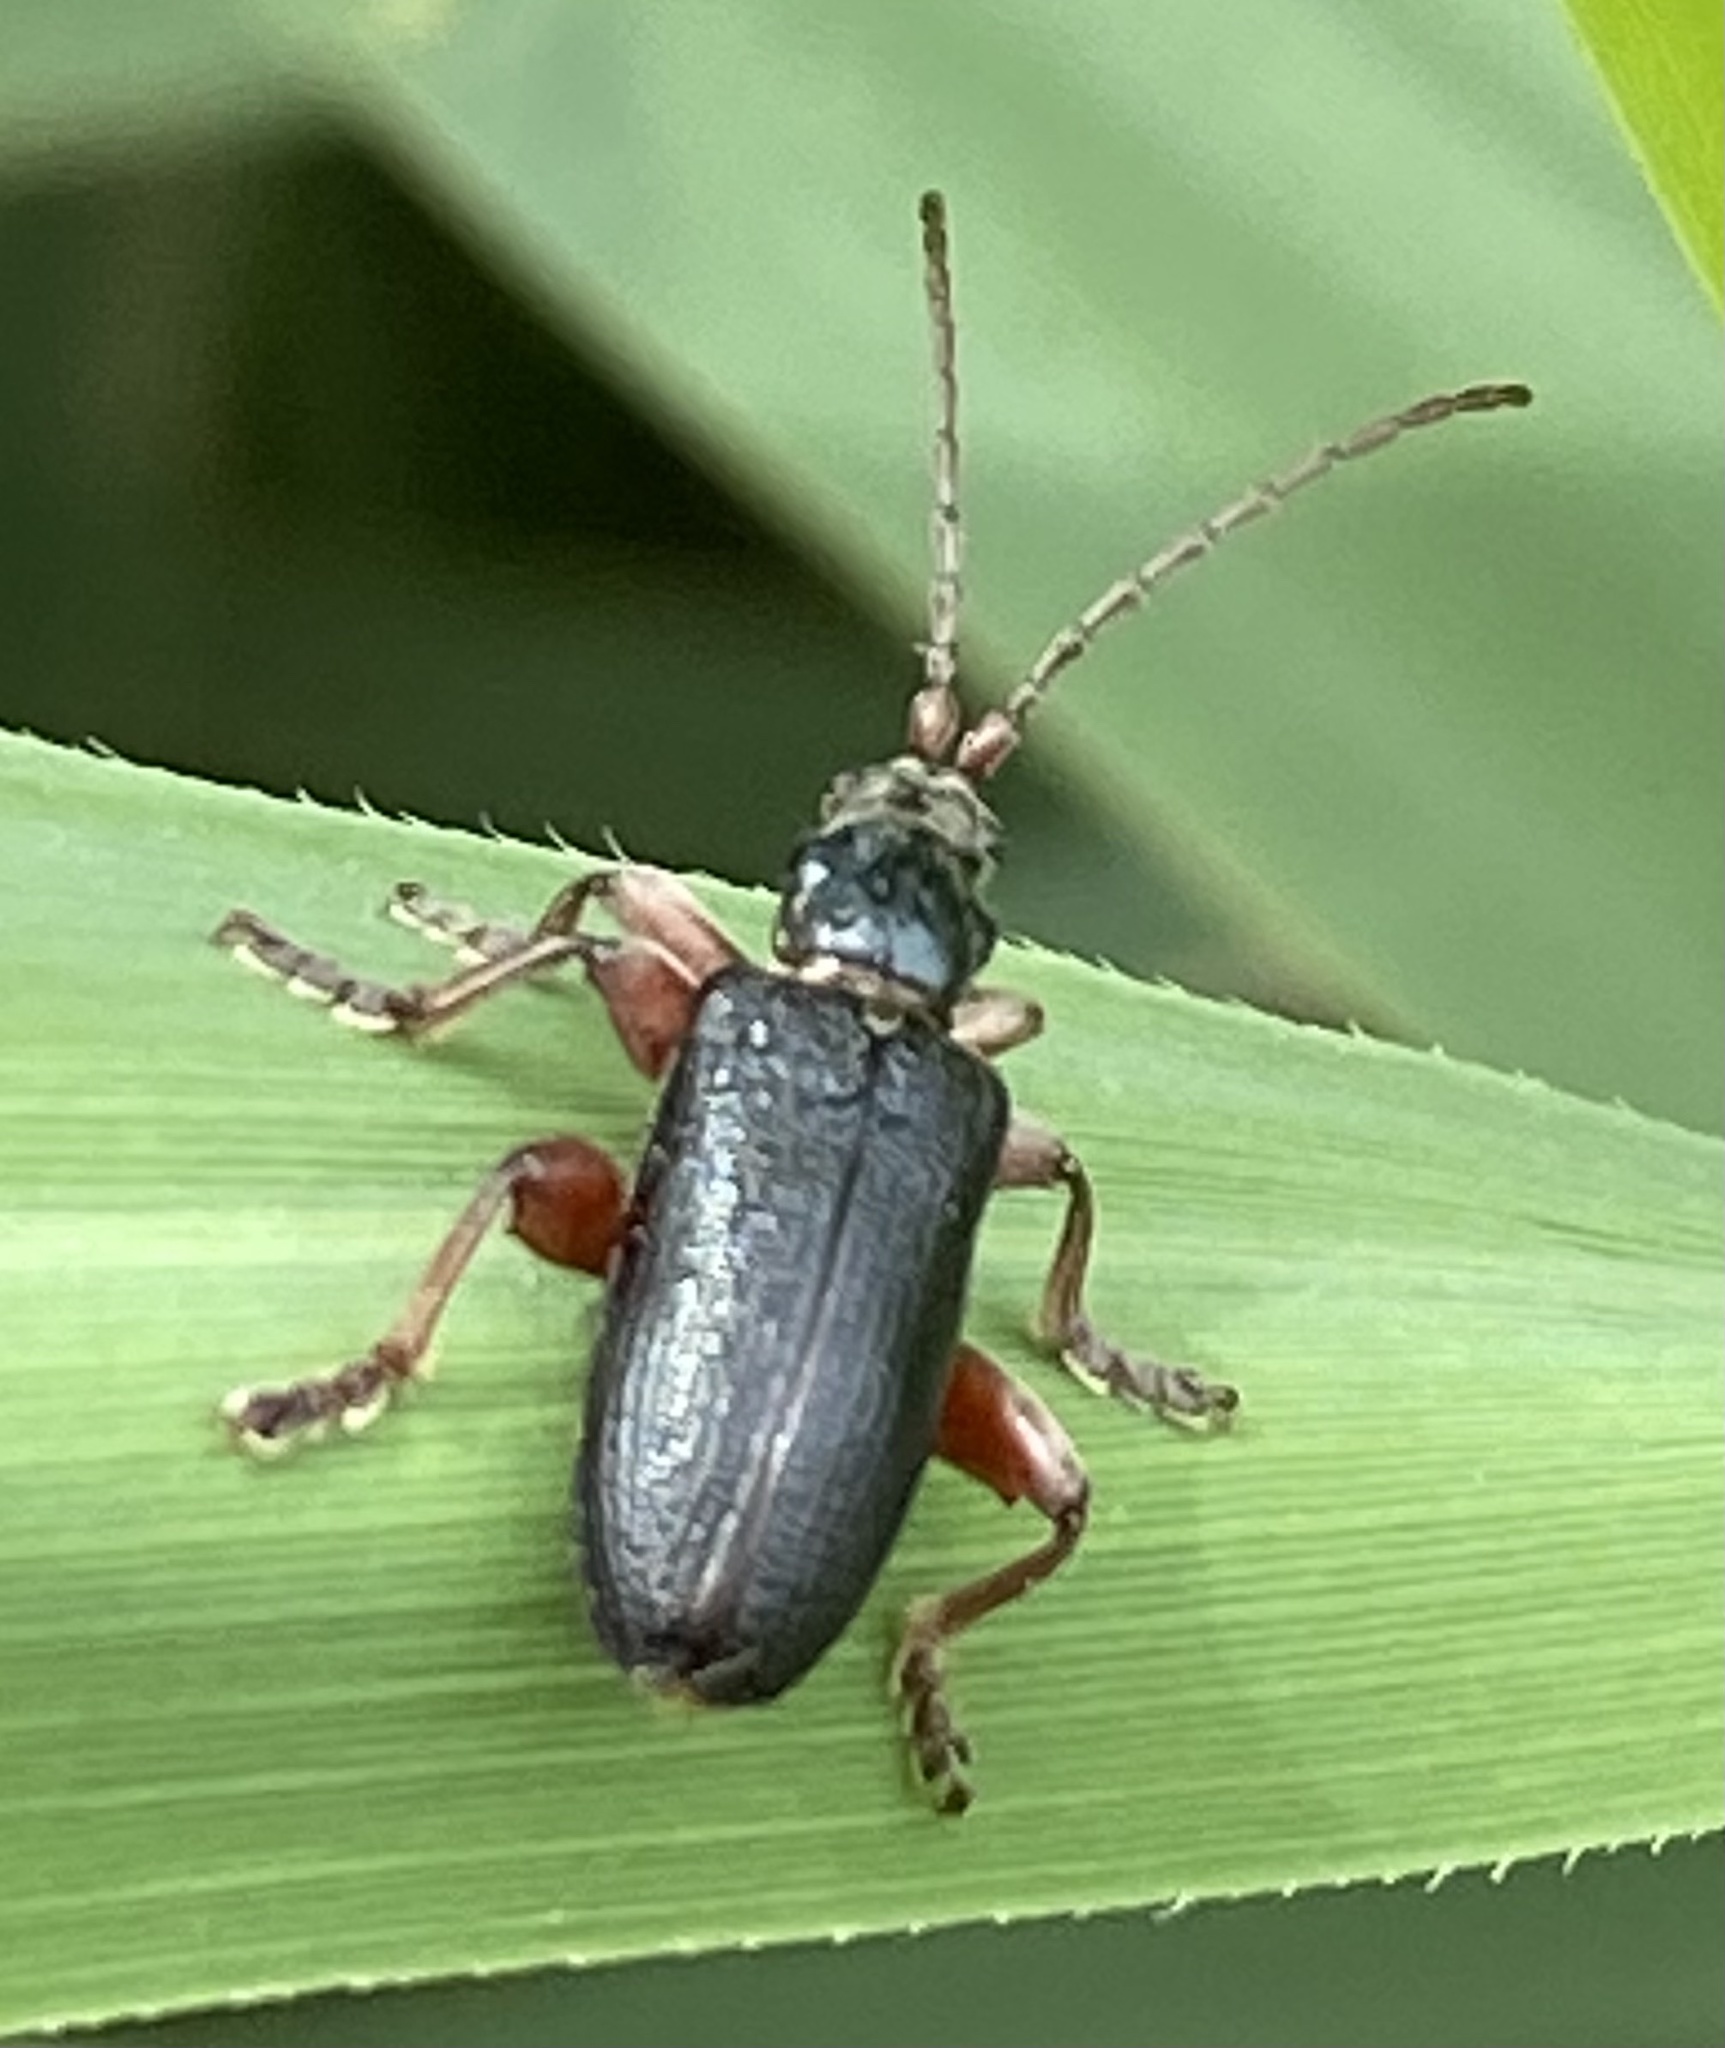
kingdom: Animalia
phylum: Arthropoda
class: Insecta
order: Coleoptera
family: Chrysomelidae
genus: Plateumaris
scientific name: Plateumaris braccata
